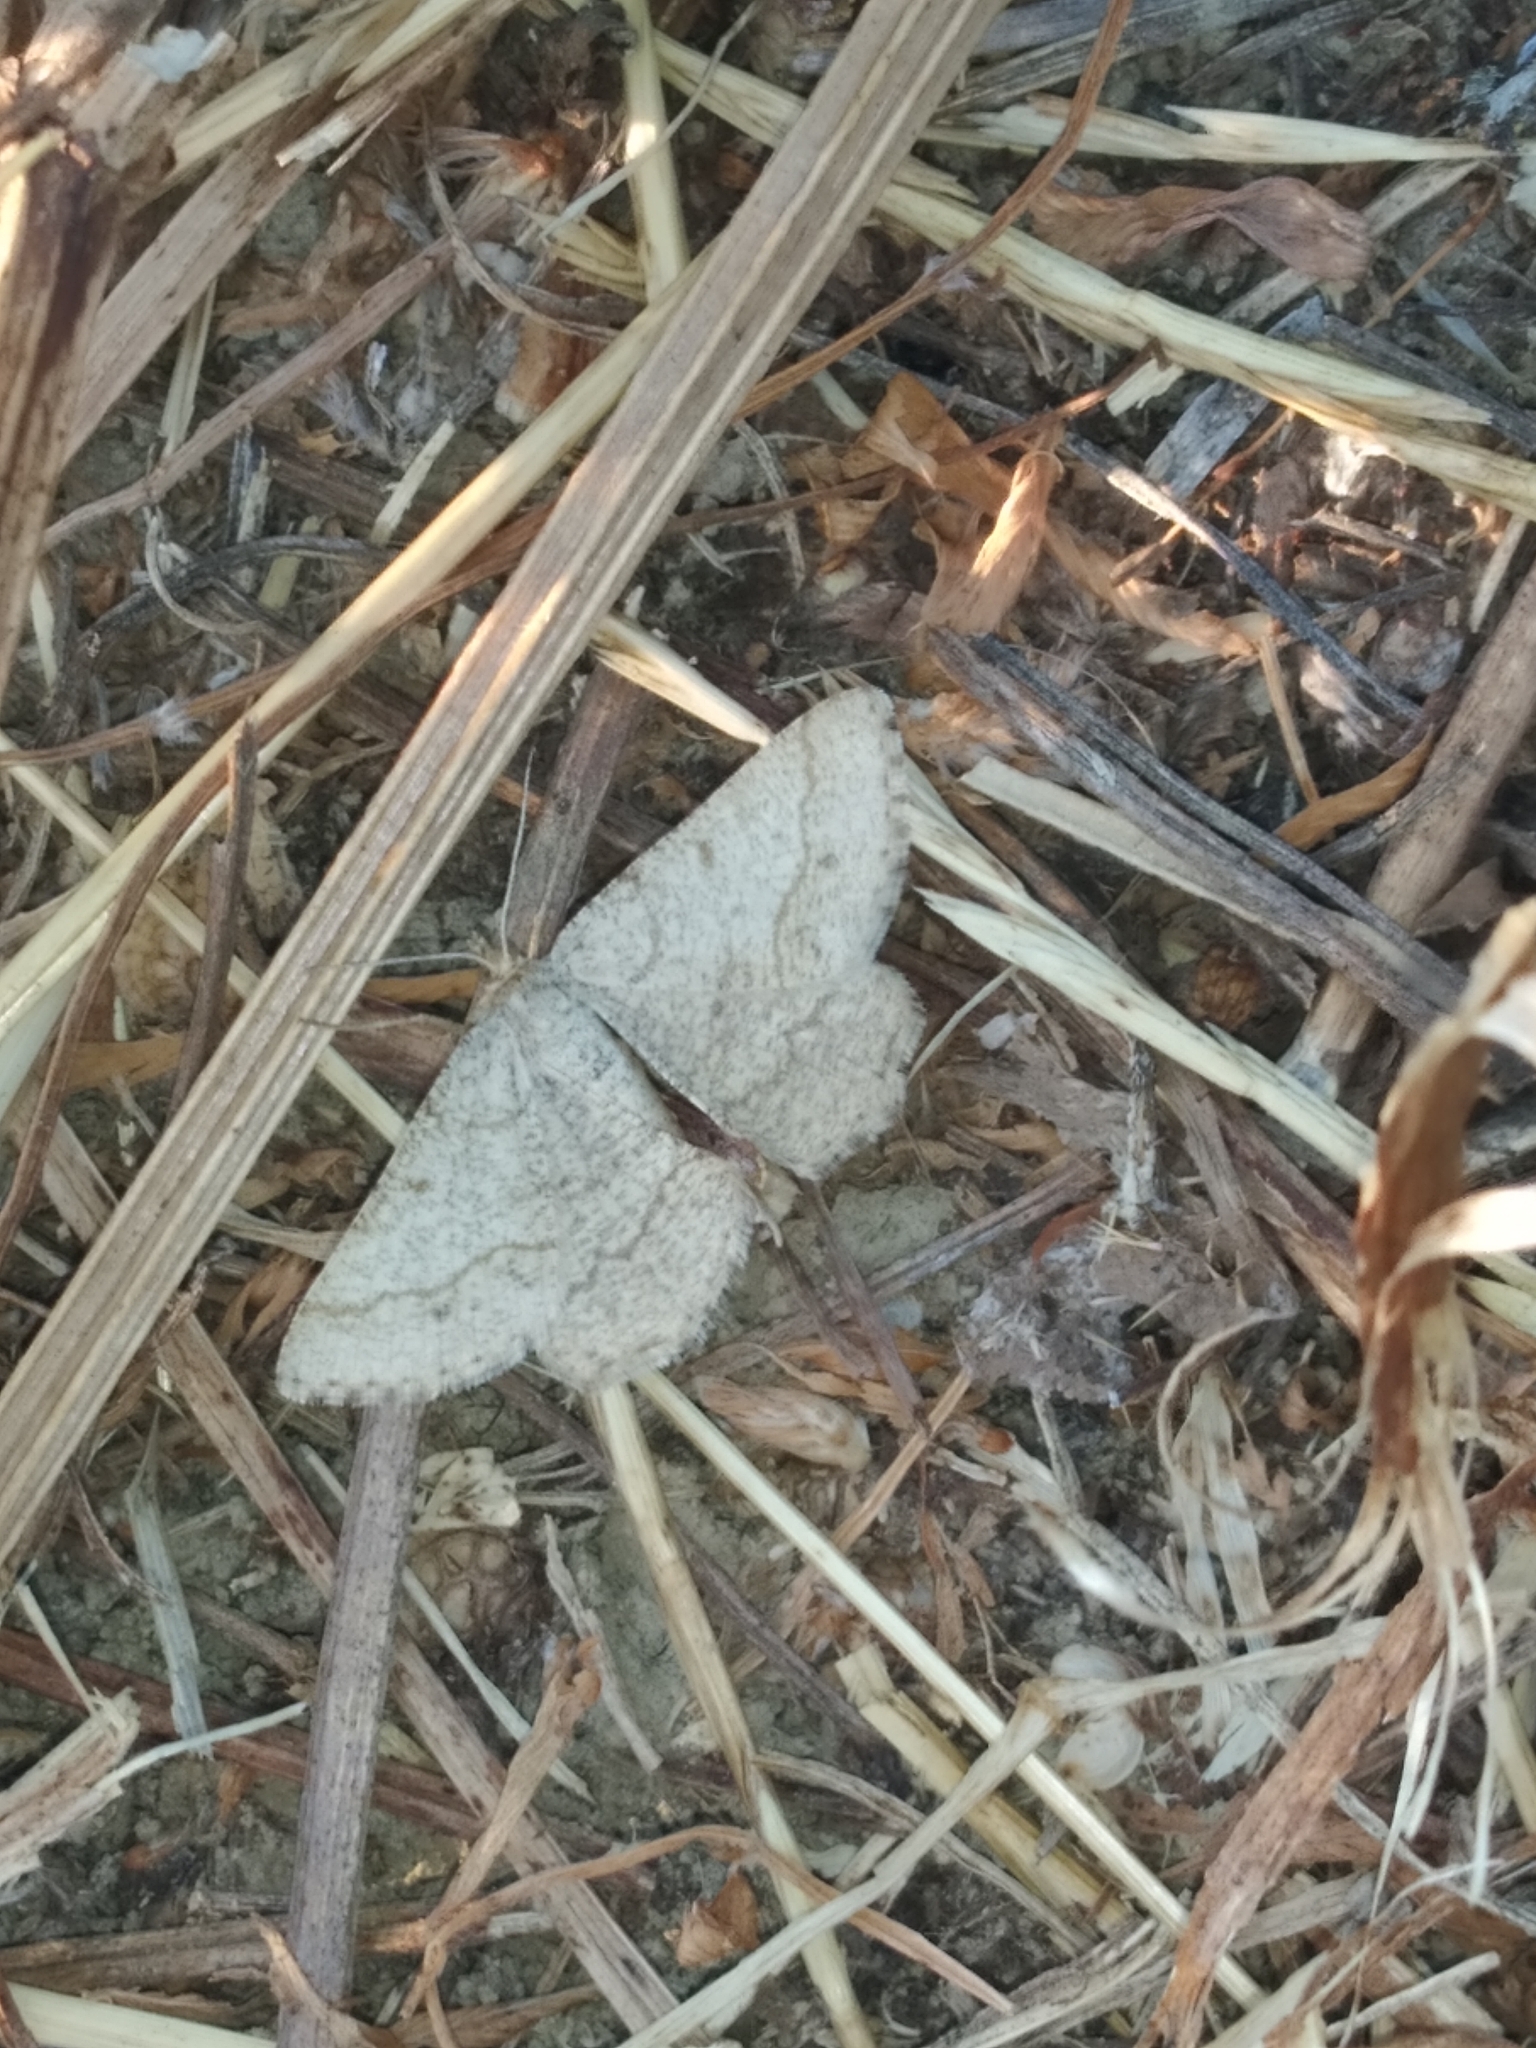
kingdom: Animalia
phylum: Arthropoda
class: Insecta
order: Lepidoptera
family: Geometridae
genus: Tephrina
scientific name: Tephrina murinaria
